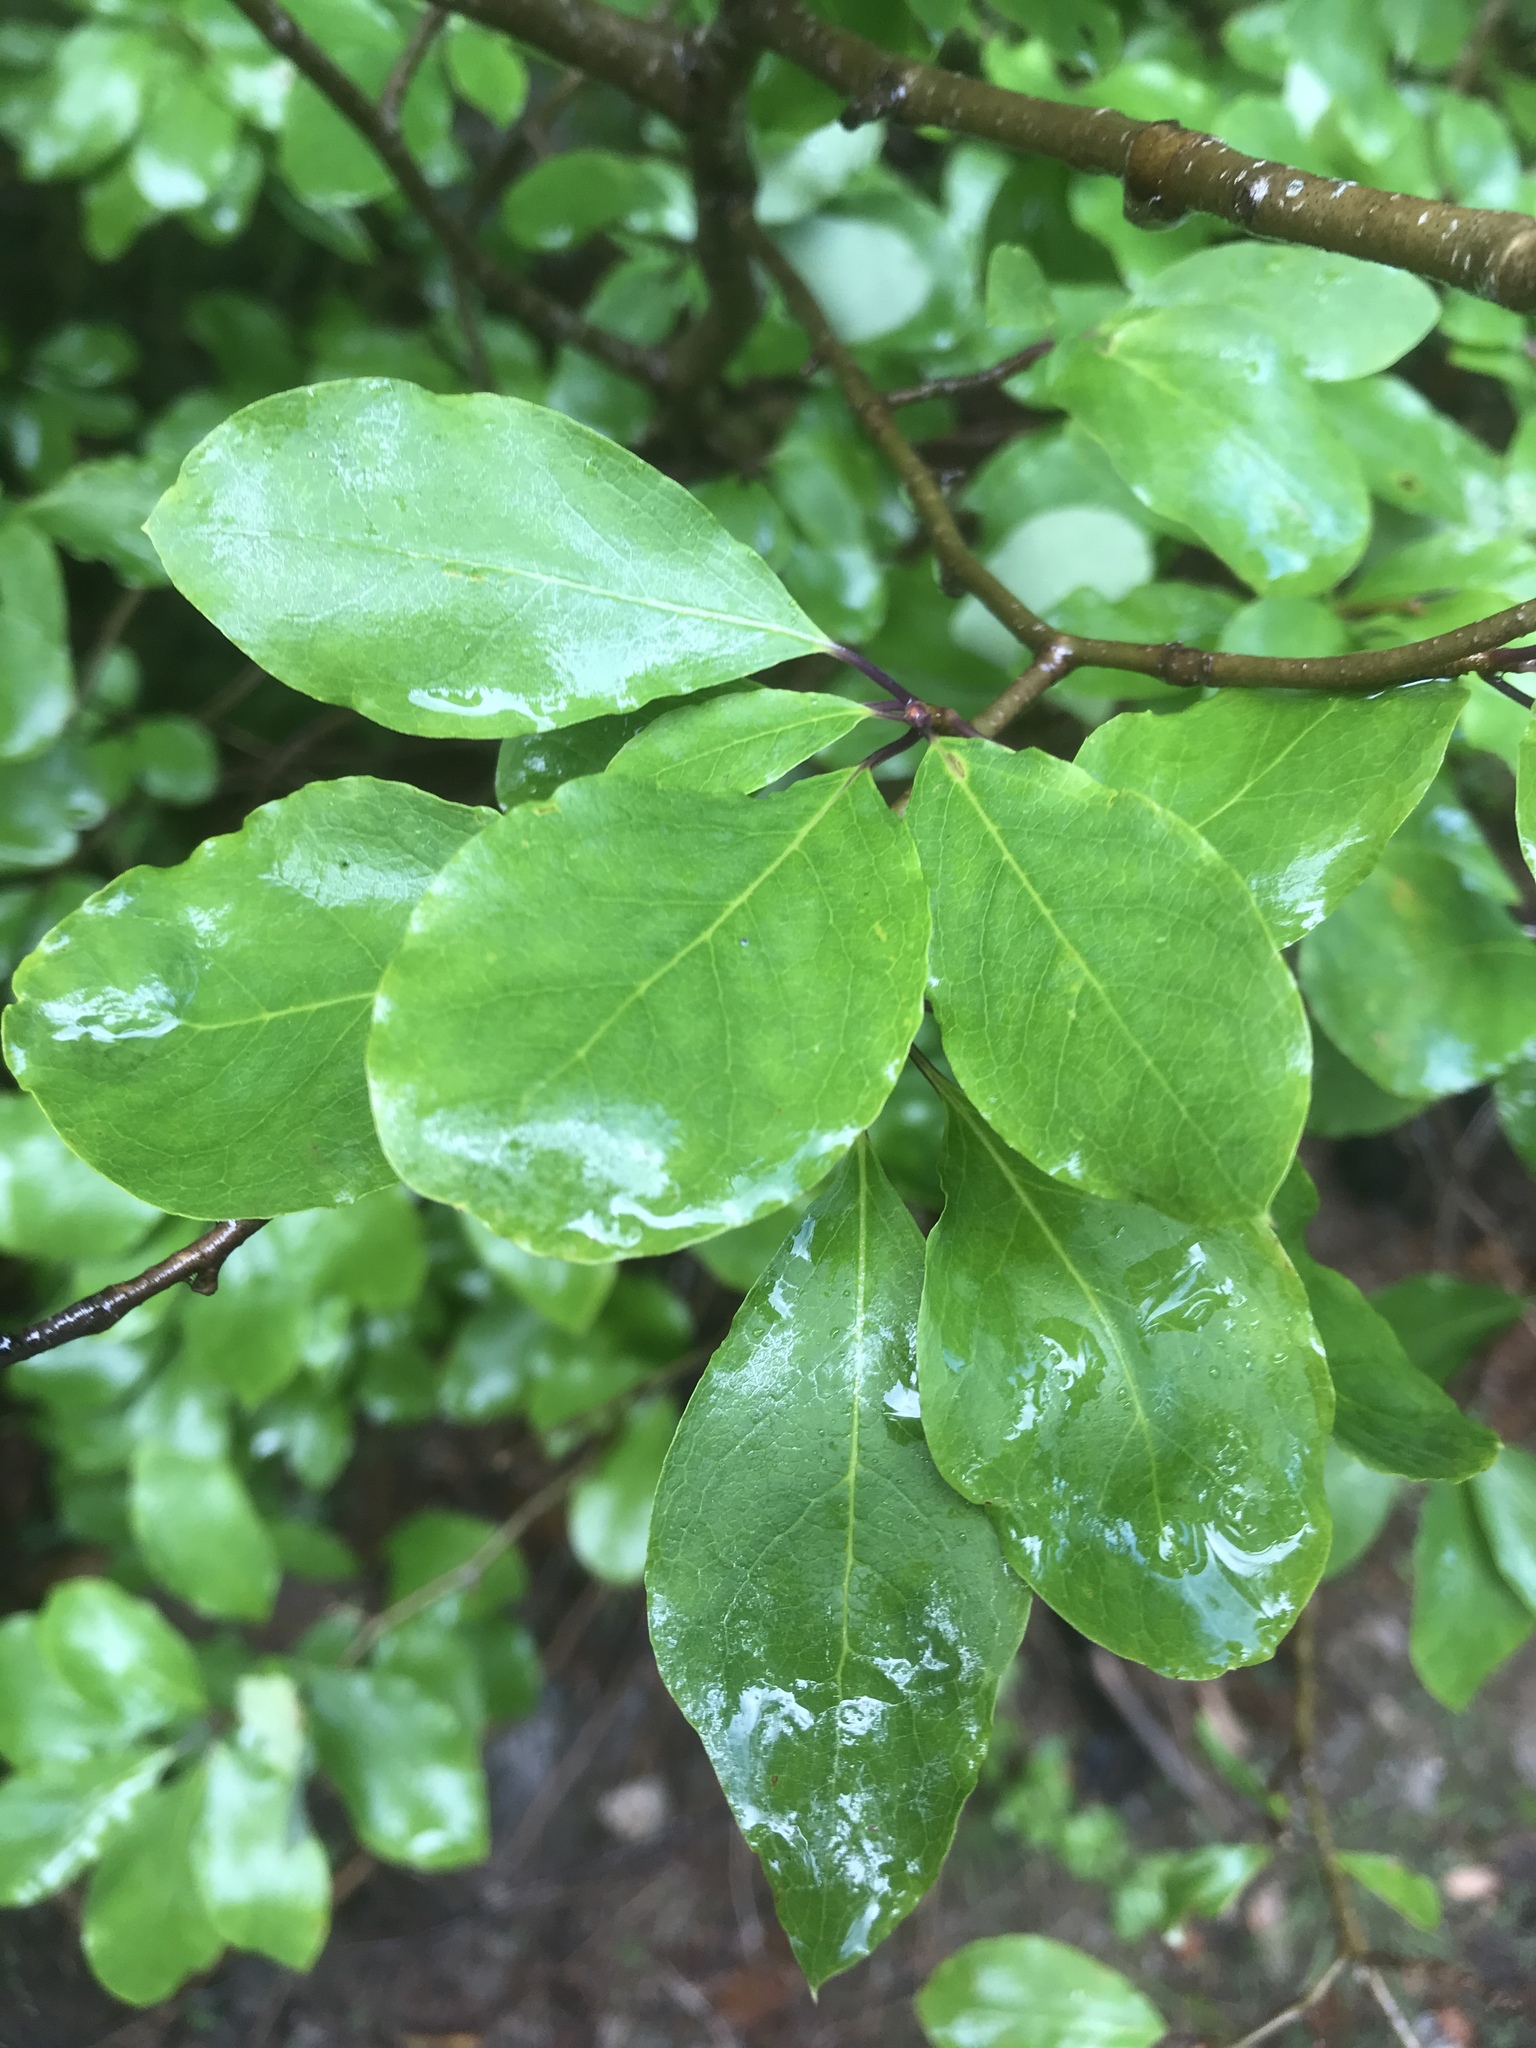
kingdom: Plantae
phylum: Tracheophyta
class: Magnoliopsida
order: Aquifoliales
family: Aquifoliaceae
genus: Ilex
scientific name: Ilex mucronata
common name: Catberry
